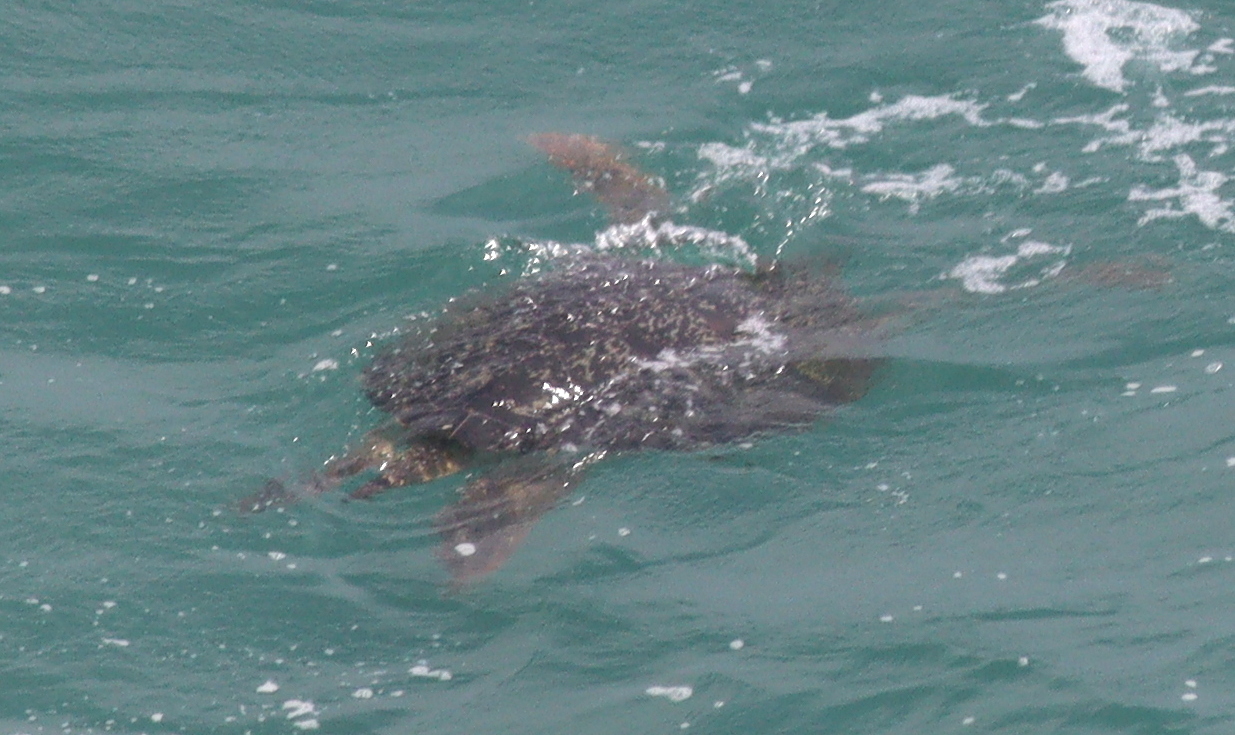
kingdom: Animalia
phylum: Chordata
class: Testudines
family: Cheloniidae
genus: Chelonia
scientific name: Chelonia mydas
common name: Green turtle
